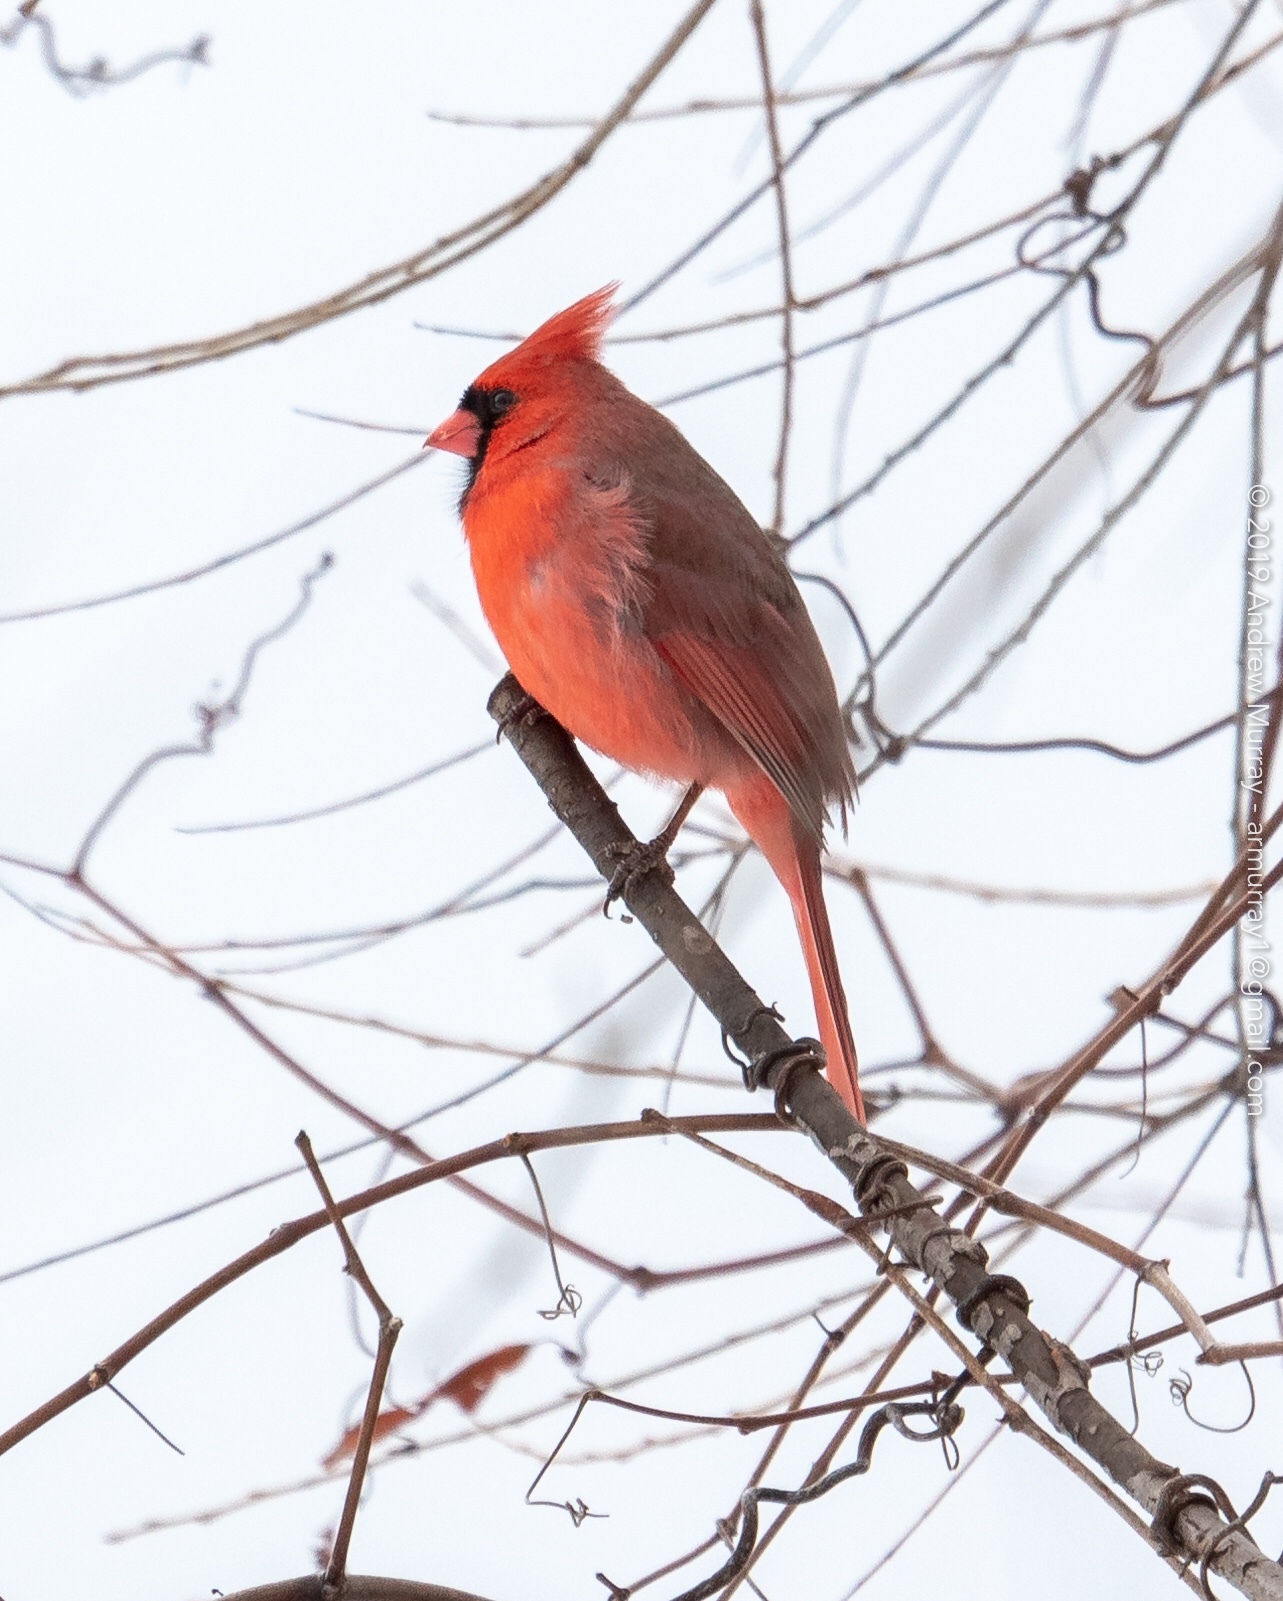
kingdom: Animalia
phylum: Chordata
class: Aves
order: Passeriformes
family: Cardinalidae
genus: Cardinalis
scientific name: Cardinalis cardinalis
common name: Northern cardinal
